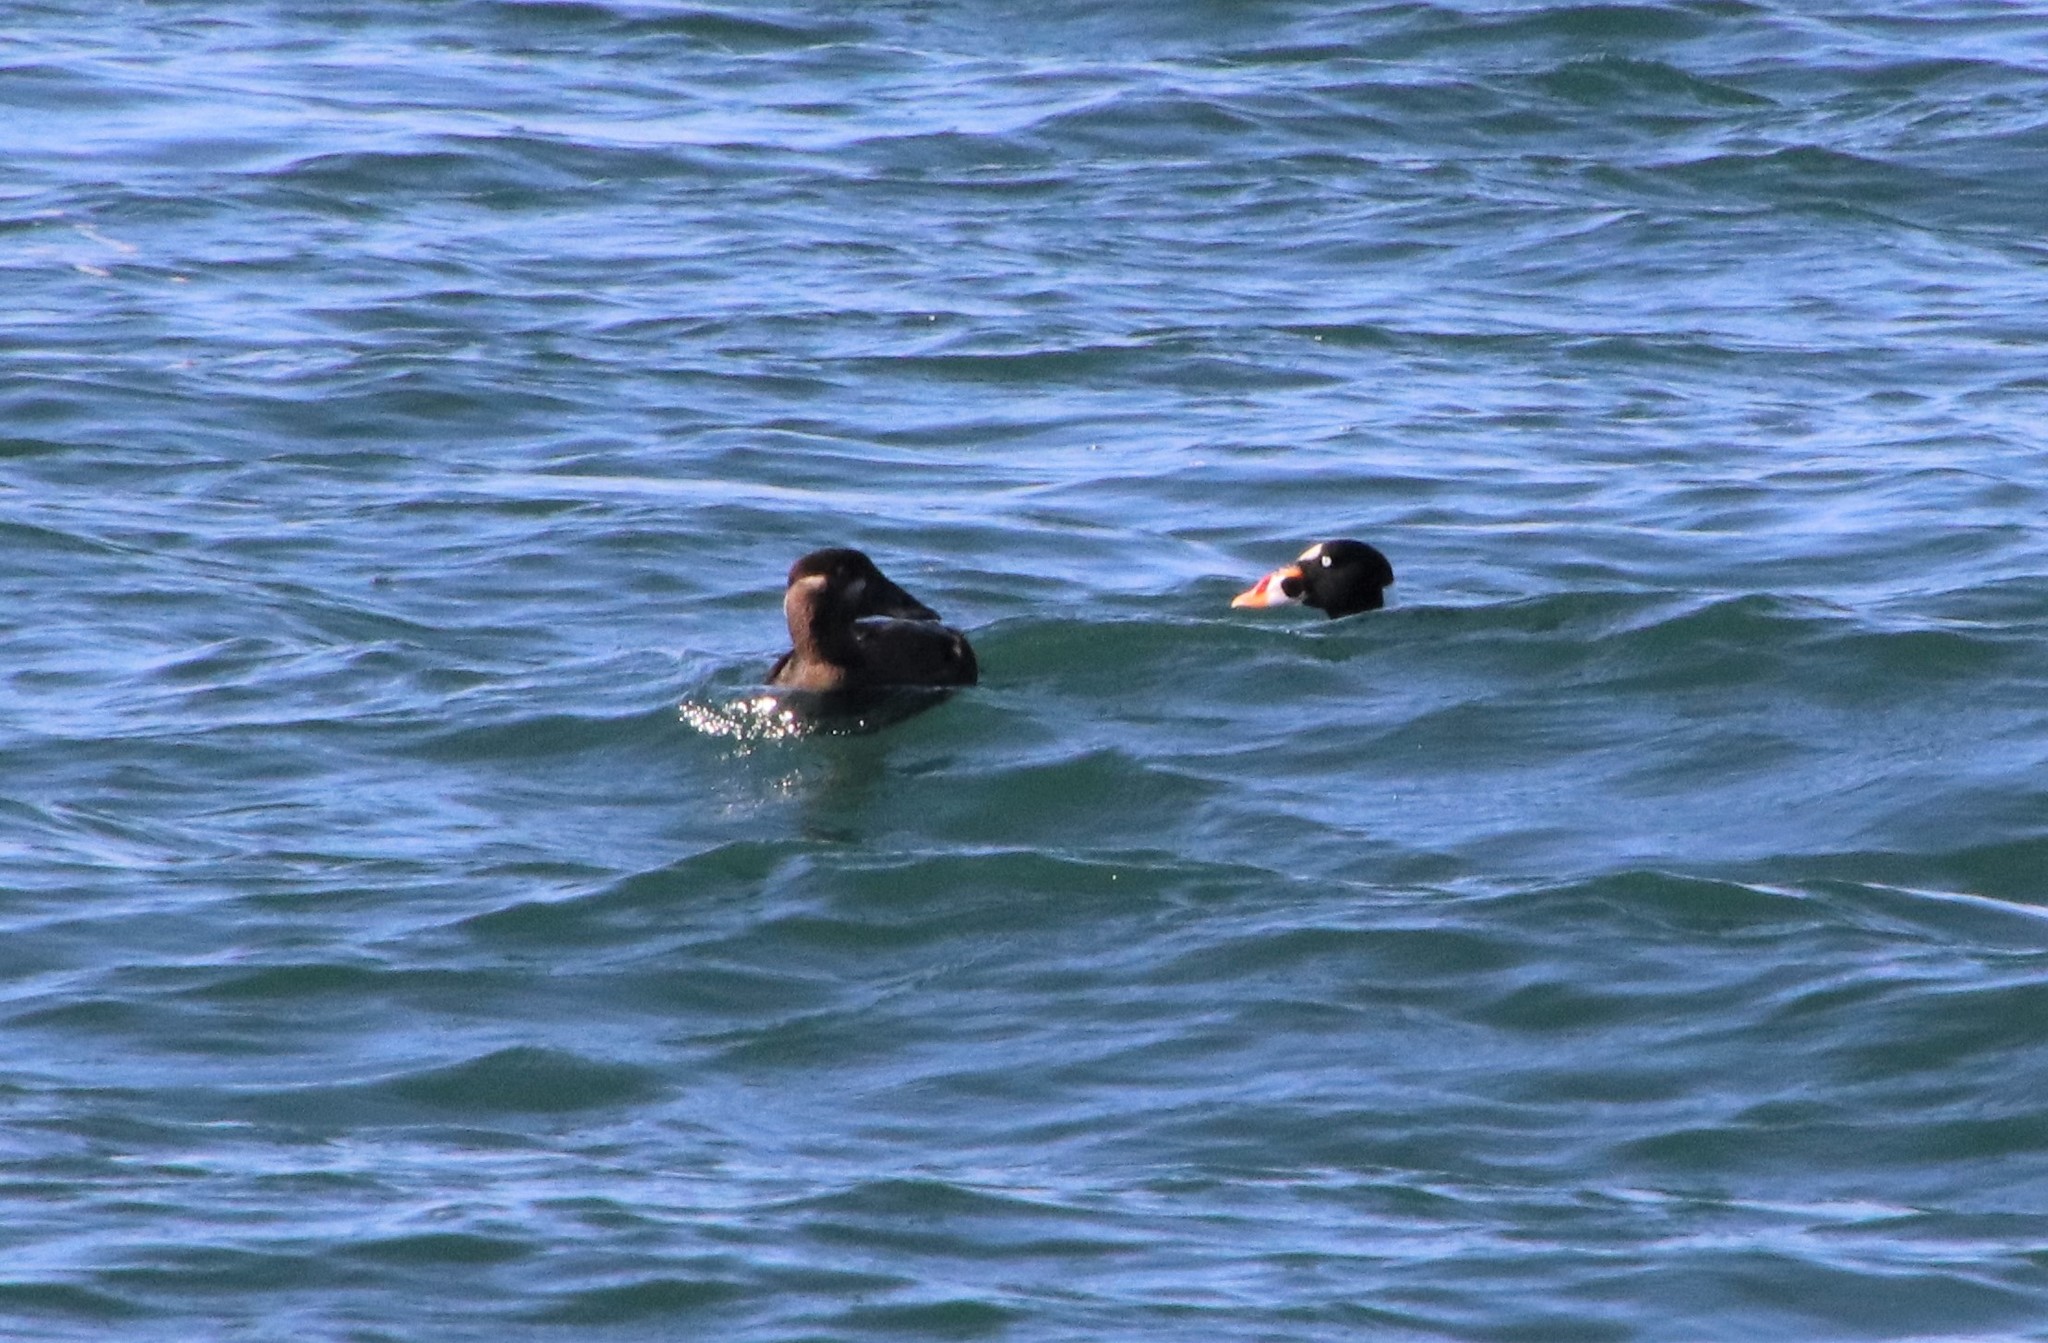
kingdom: Animalia
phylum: Chordata
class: Aves
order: Anseriformes
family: Anatidae
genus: Melanitta
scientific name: Melanitta perspicillata
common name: Surf scoter
